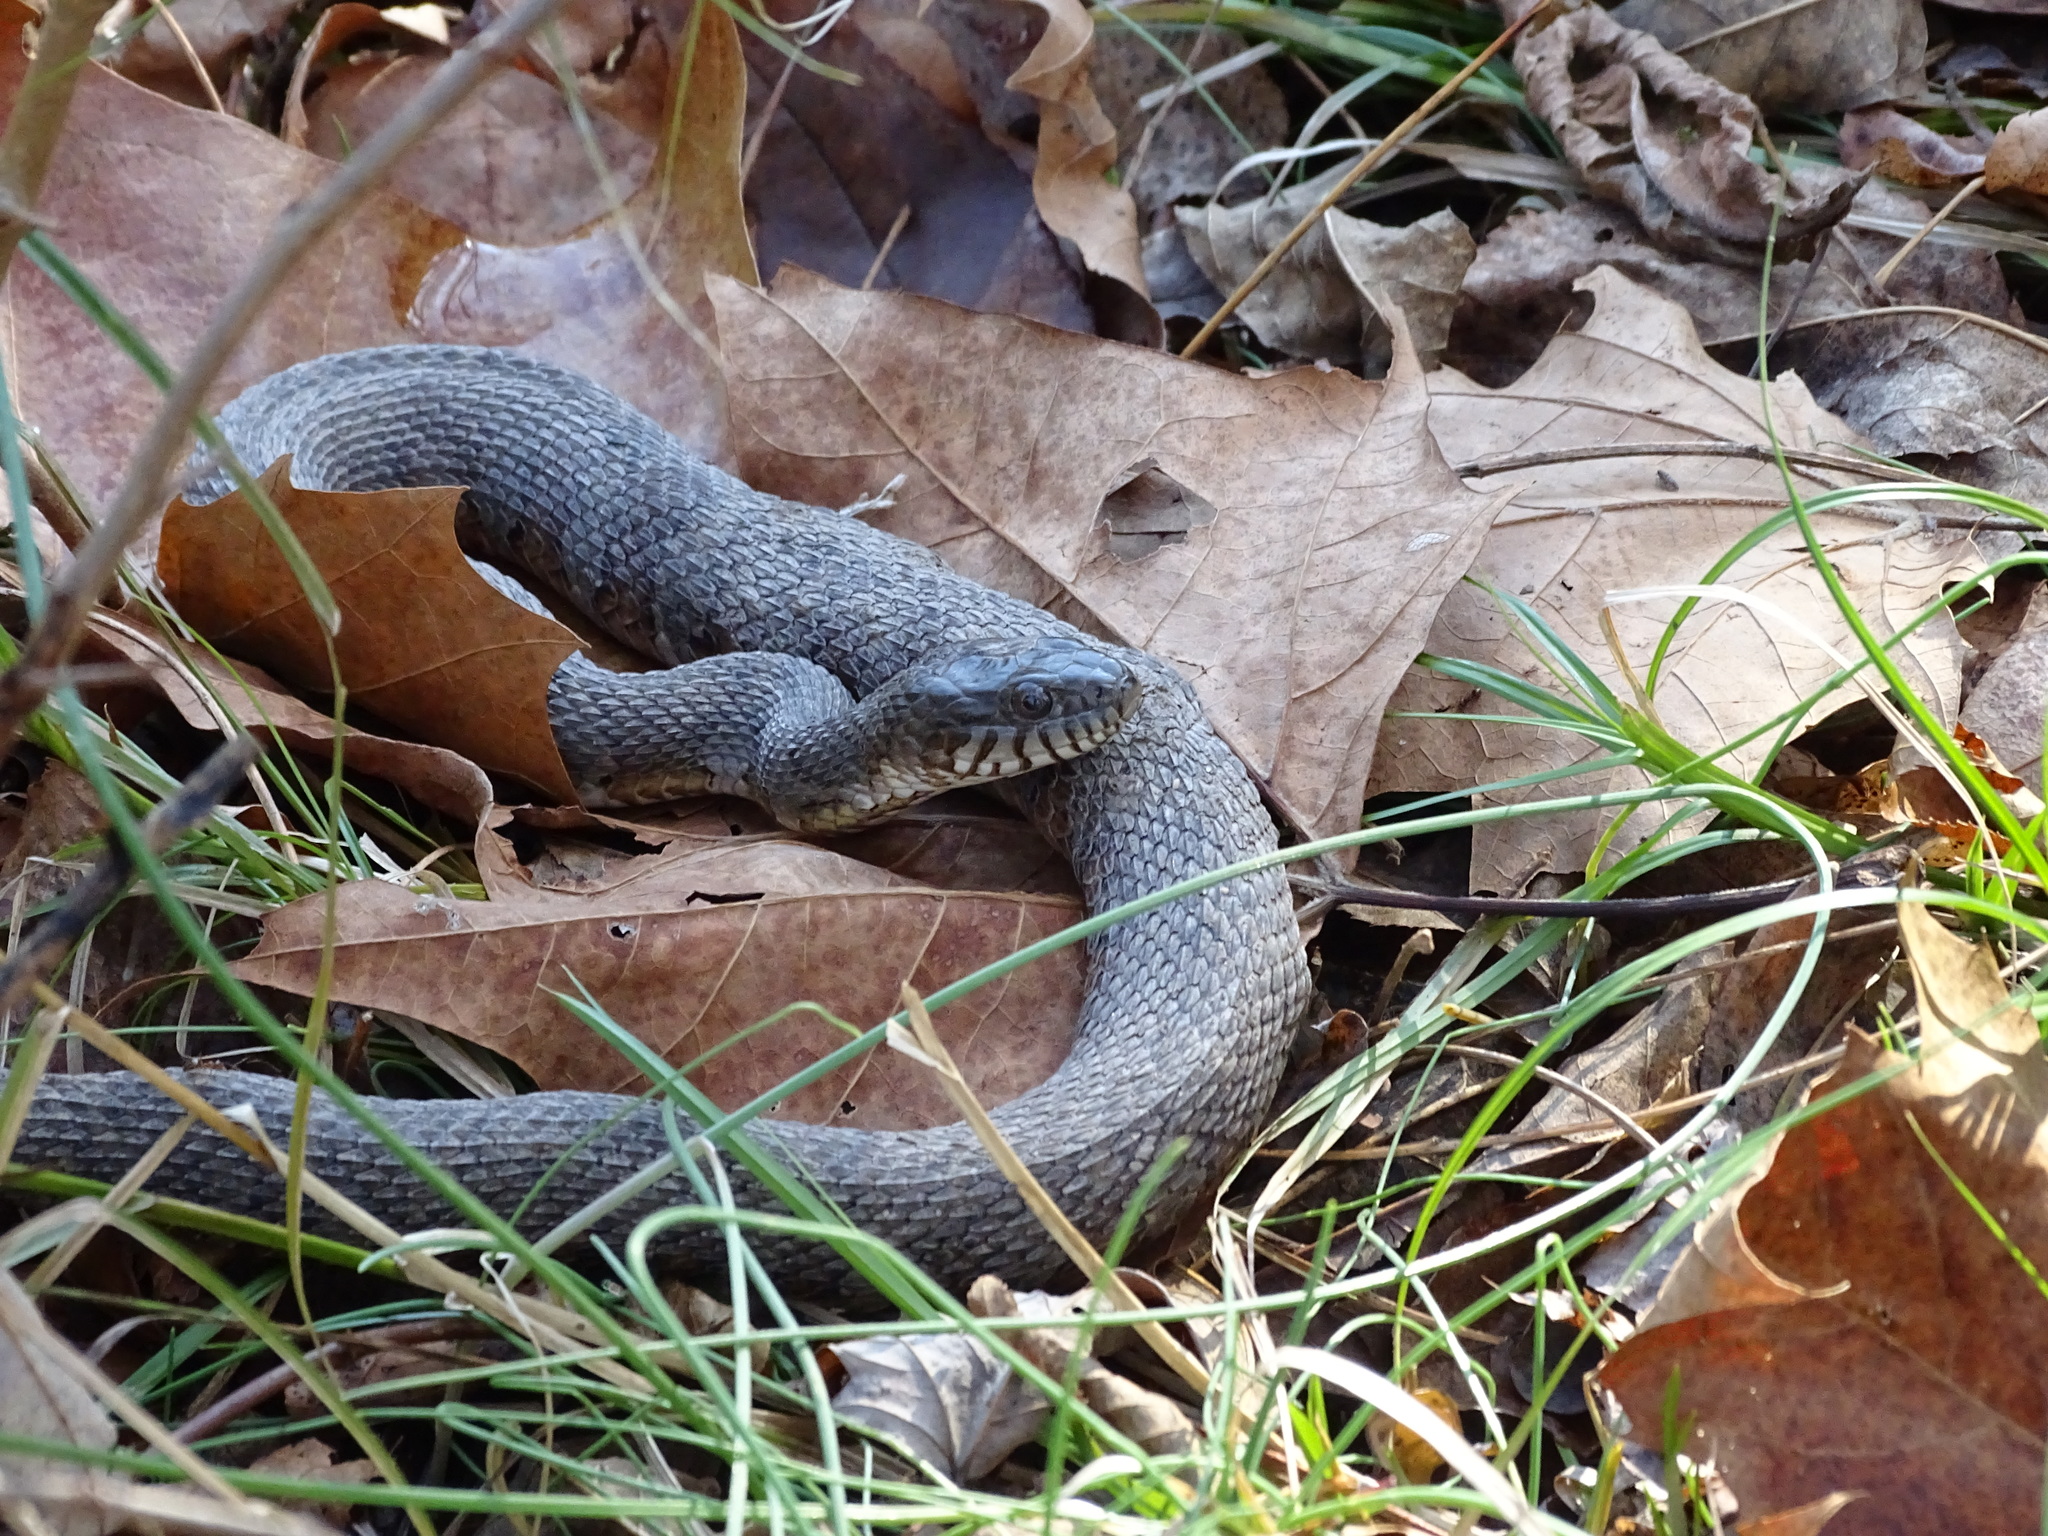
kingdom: Animalia
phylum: Chordata
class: Squamata
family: Colubridae
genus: Nerodia
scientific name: Nerodia sipedon
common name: Northern water snake
